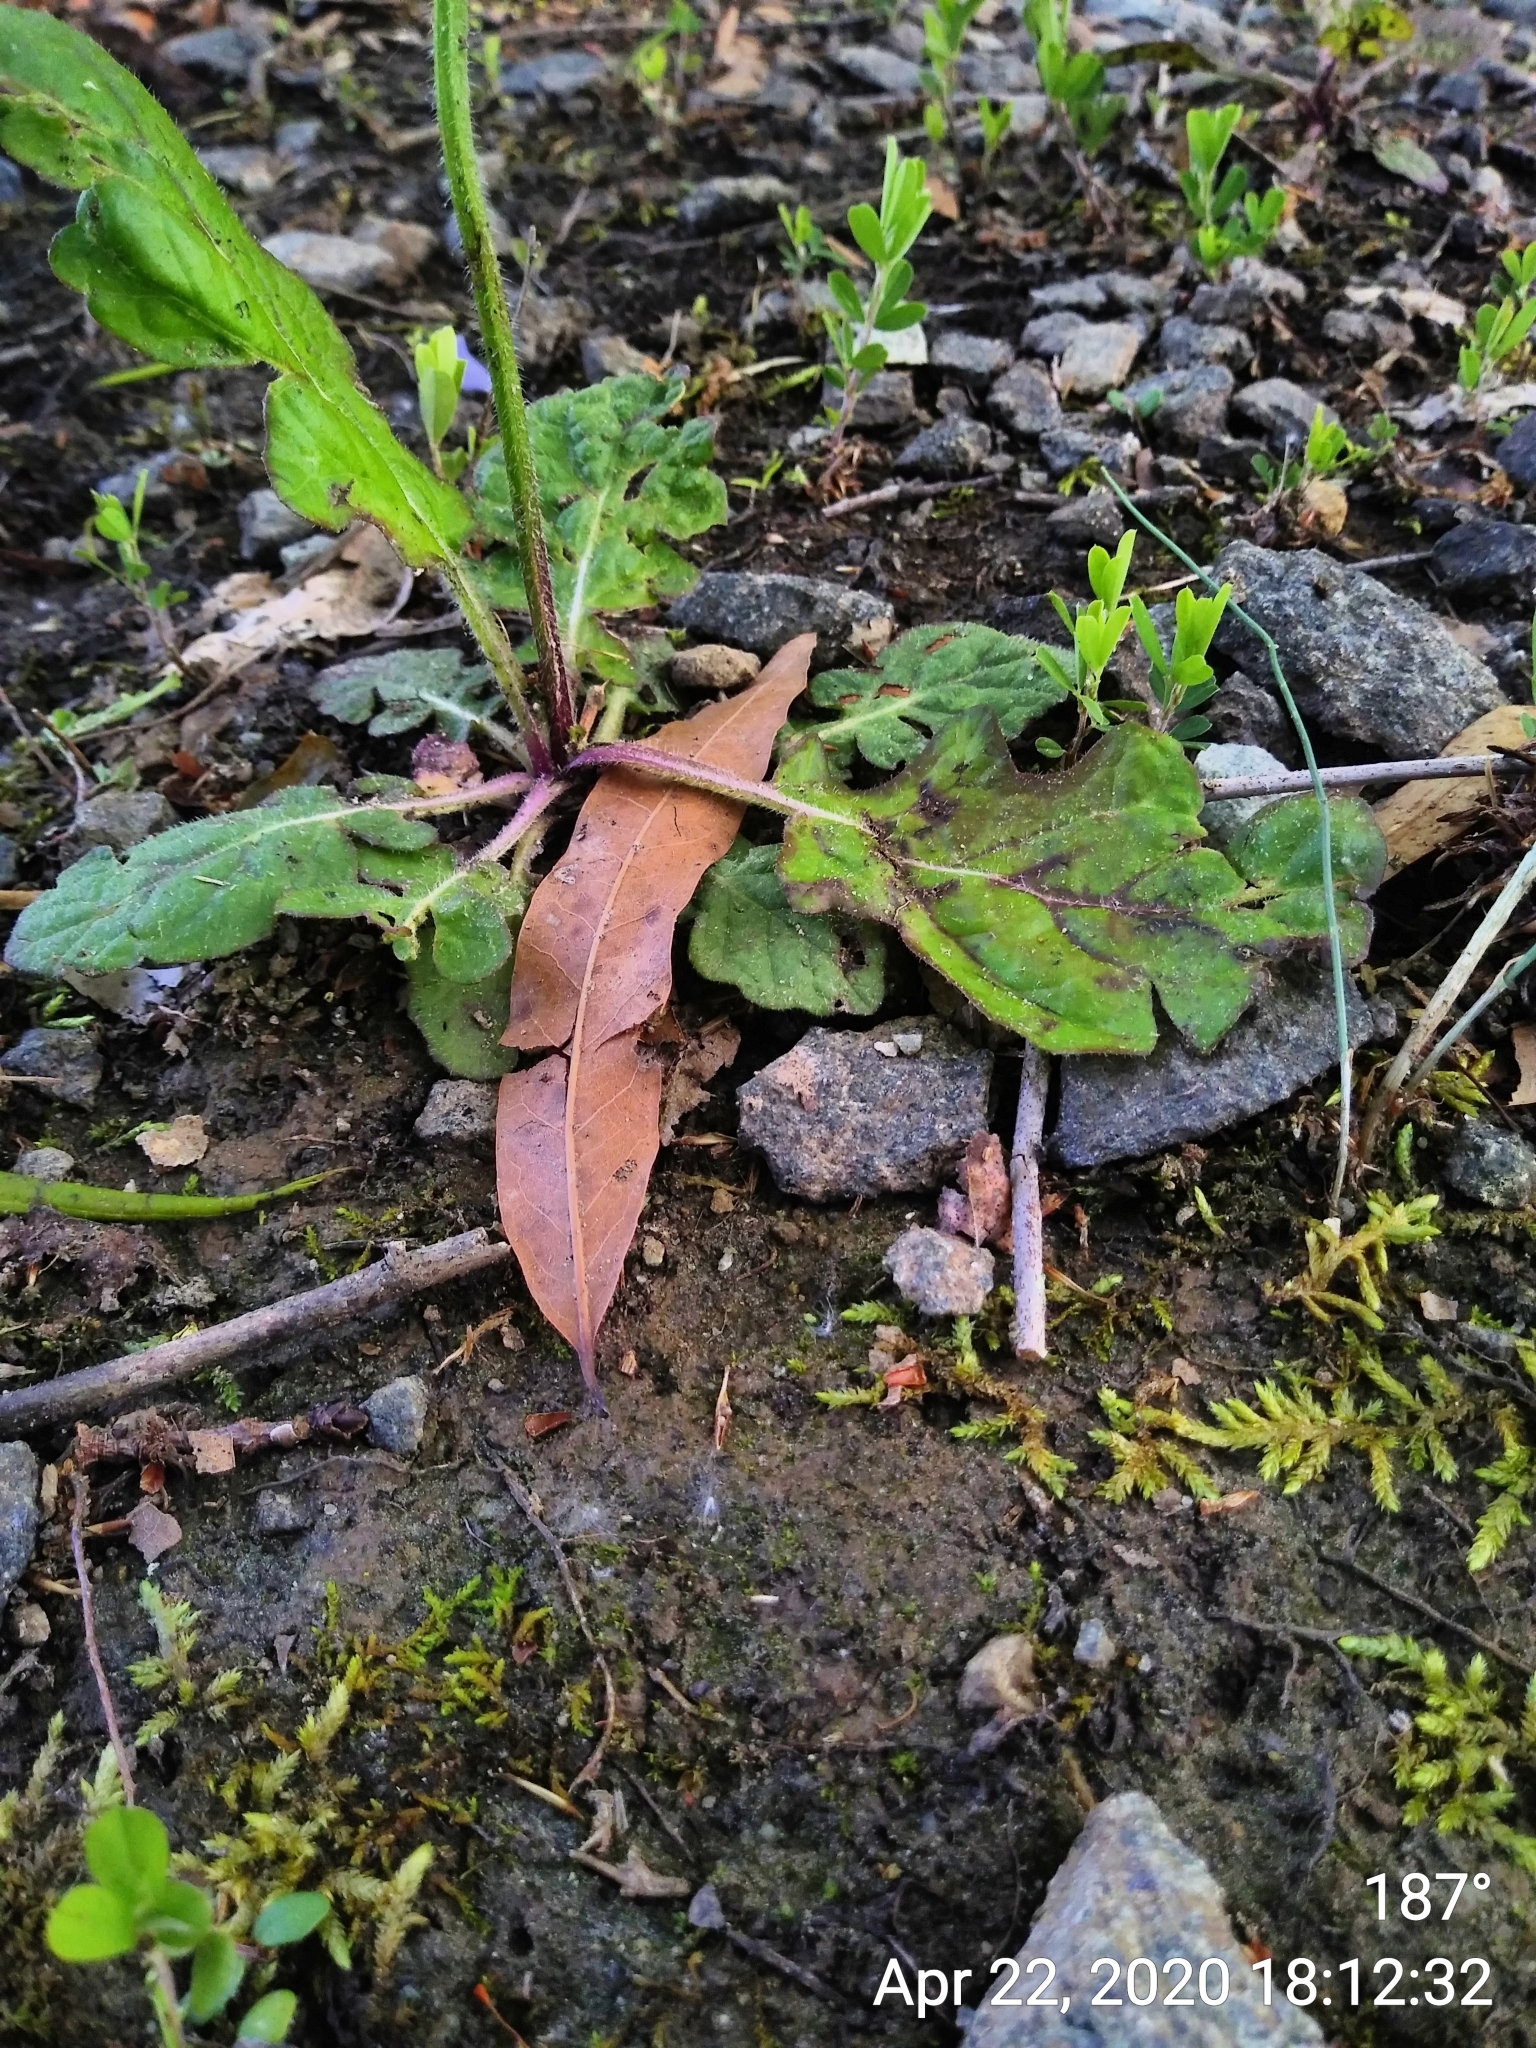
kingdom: Plantae
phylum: Tracheophyta
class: Magnoliopsida
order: Lamiales
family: Lamiaceae
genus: Salvia
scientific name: Salvia lyrata
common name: Cancerweed
